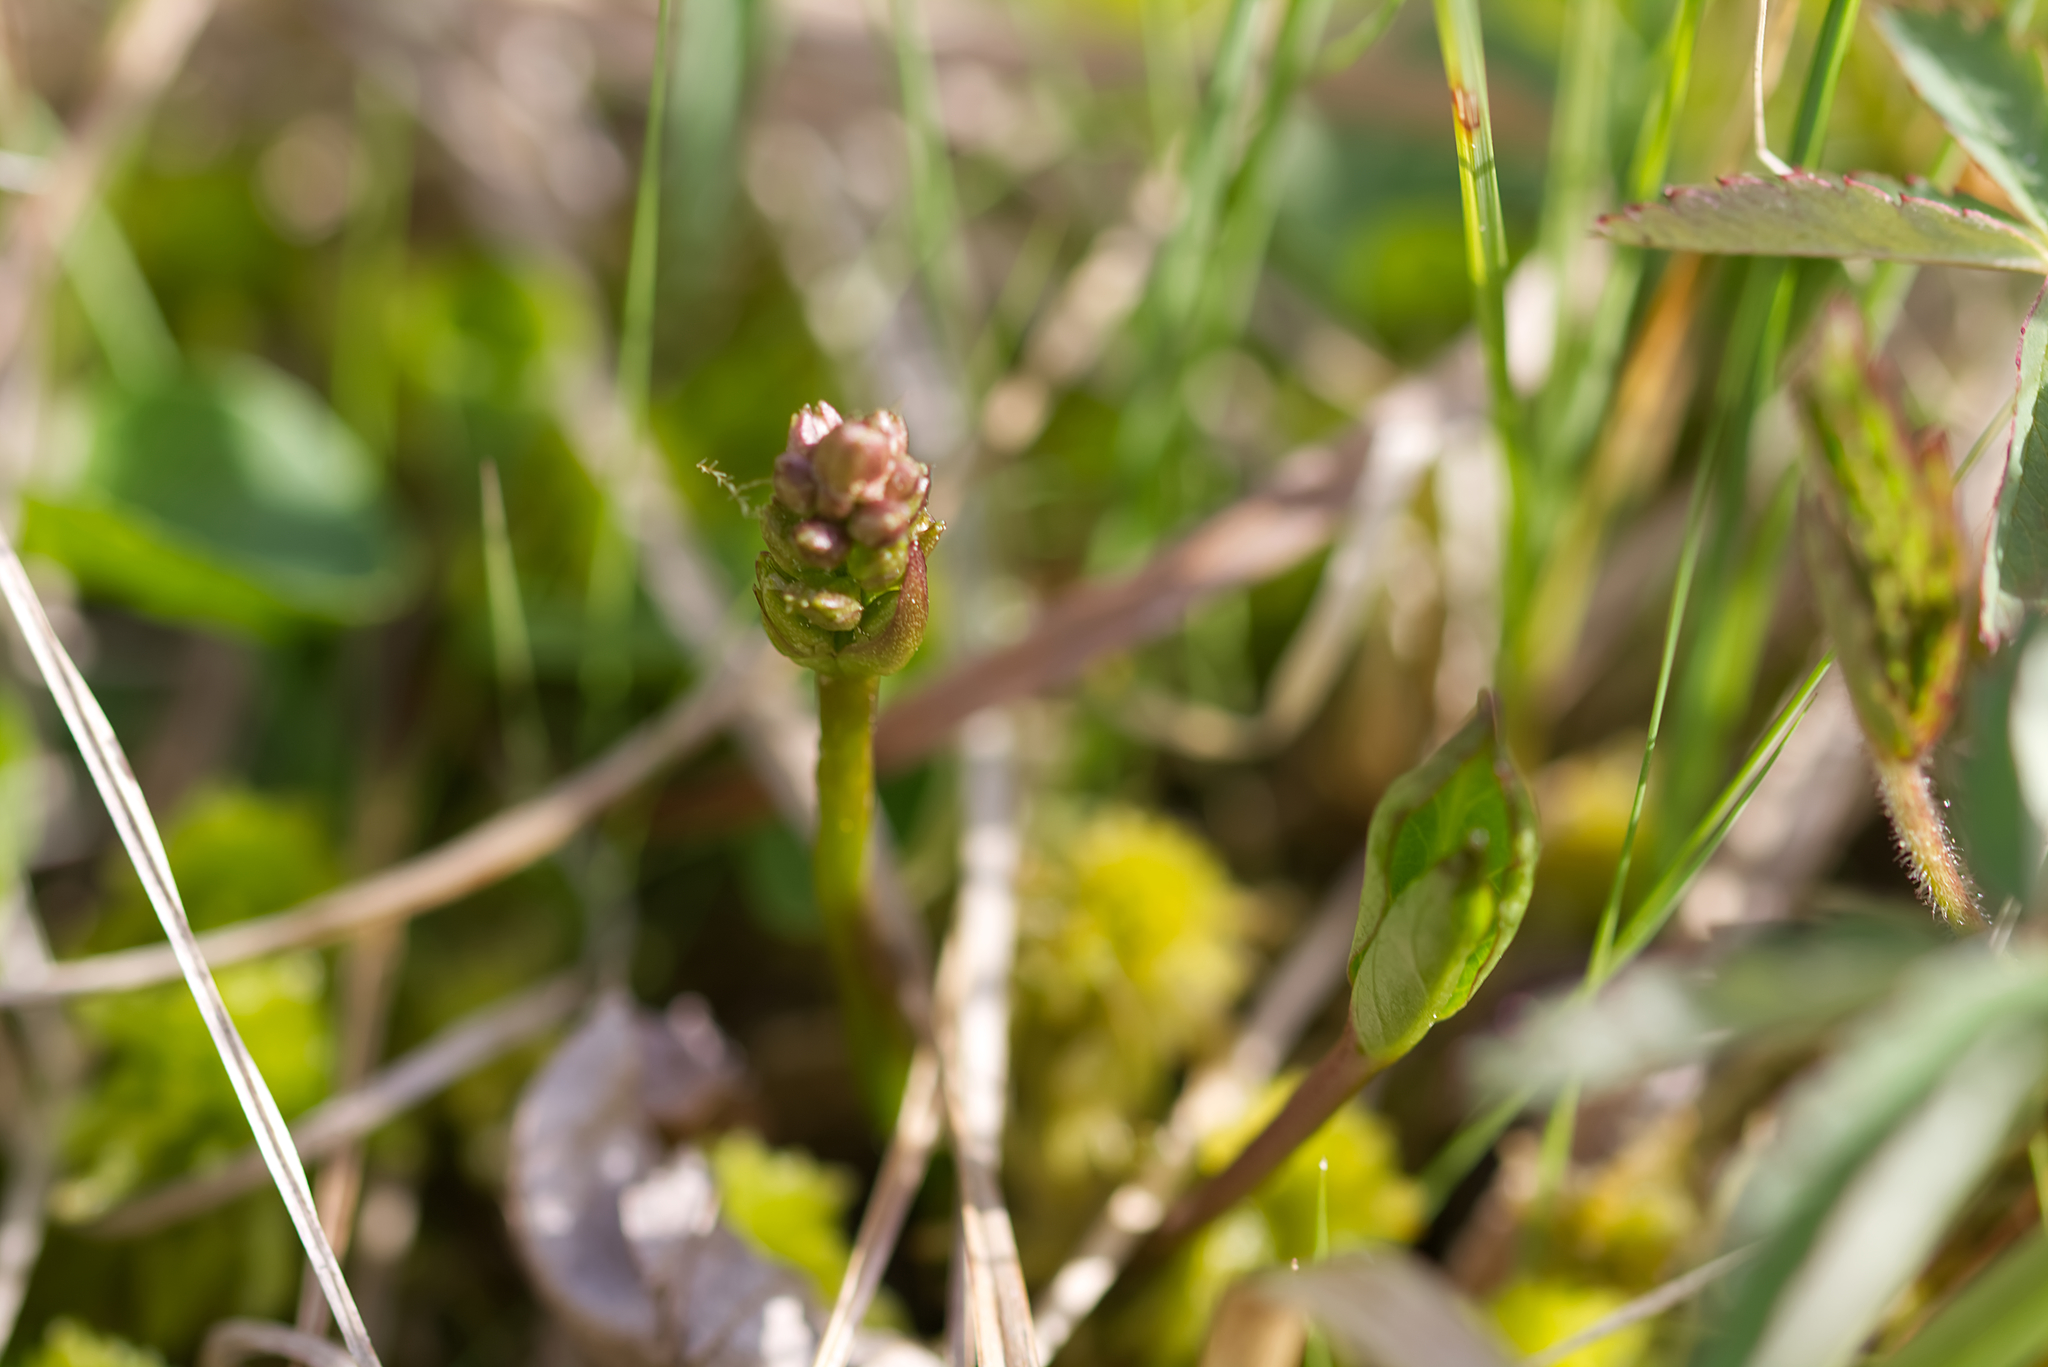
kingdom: Plantae
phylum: Tracheophyta
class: Magnoliopsida
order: Asterales
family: Menyanthaceae
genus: Menyanthes
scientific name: Menyanthes trifoliata
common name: Bogbean
